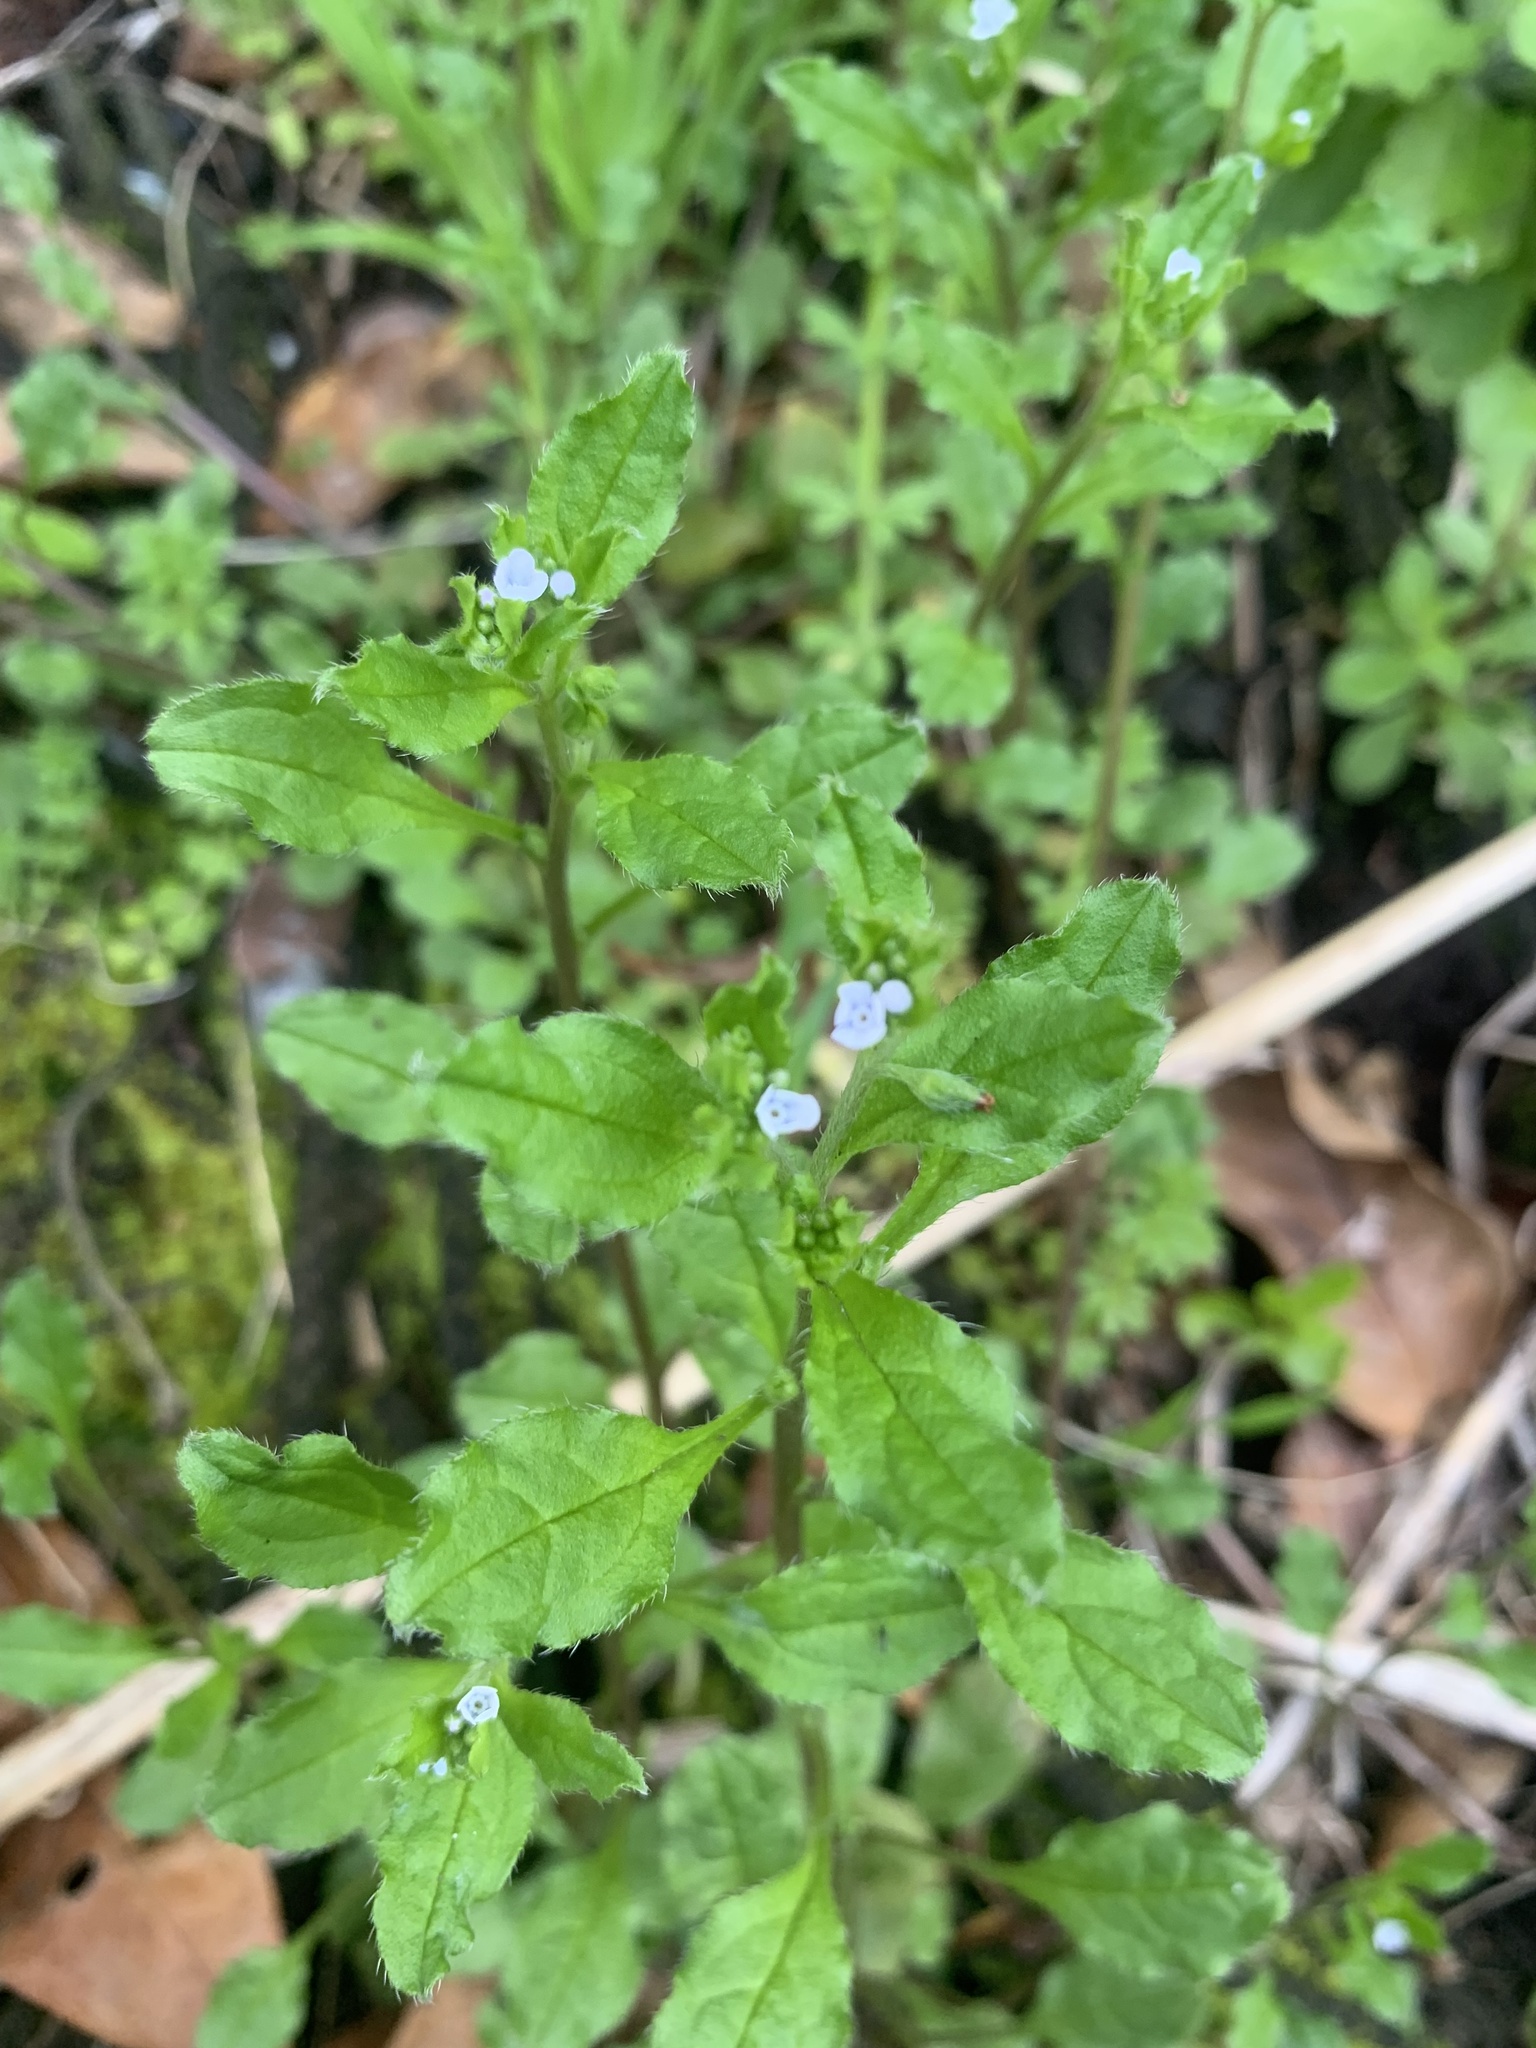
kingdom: Plantae
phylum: Tracheophyta
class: Magnoliopsida
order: Boraginales
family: Boraginaceae
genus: Bothriospermum
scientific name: Bothriospermum zeylanicum
